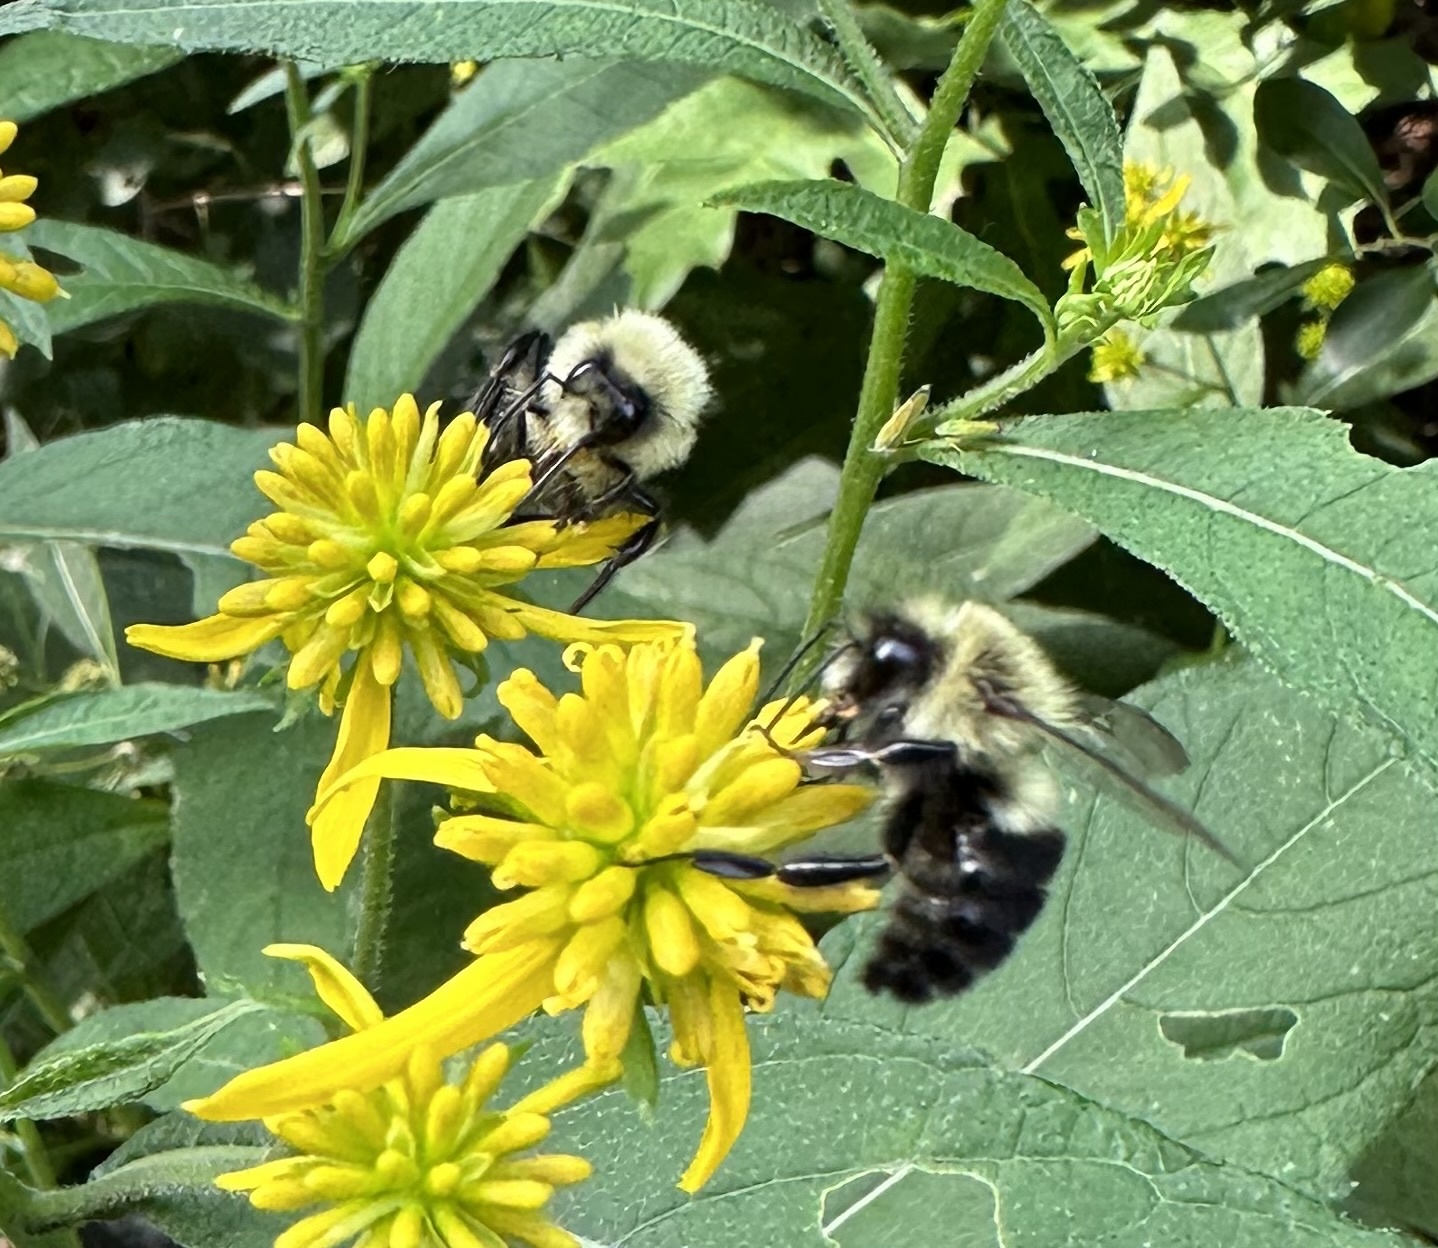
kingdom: Animalia
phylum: Arthropoda
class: Insecta
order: Hymenoptera
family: Apidae
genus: Bombus
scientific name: Bombus impatiens
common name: Common eastern bumble bee
